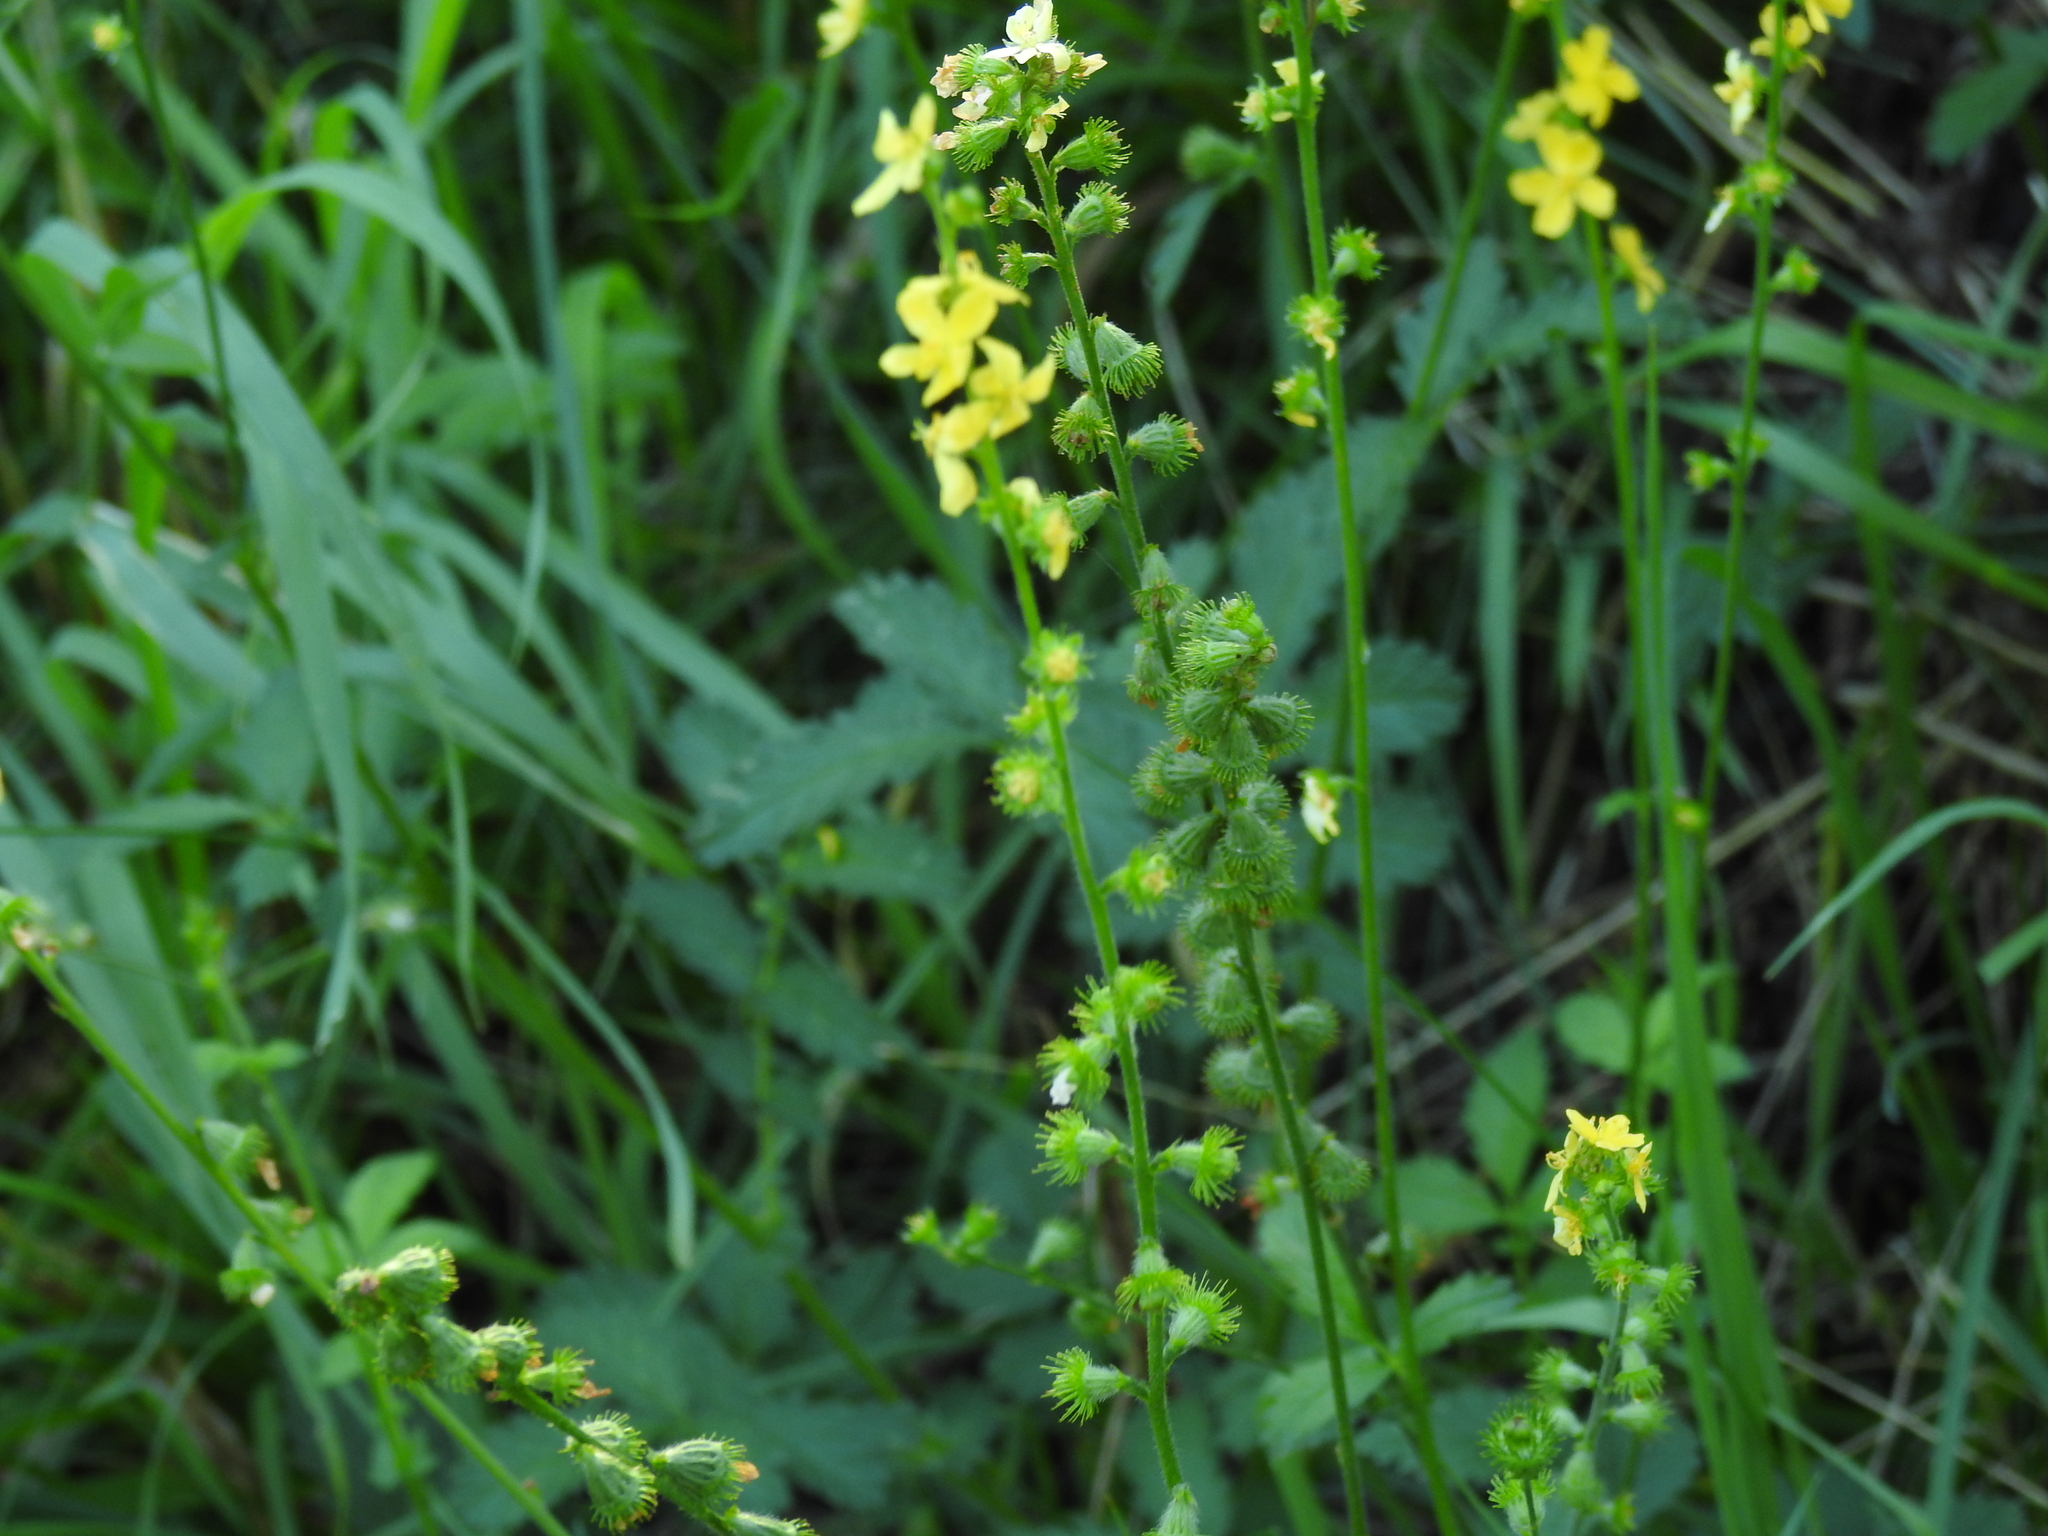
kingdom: Plantae
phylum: Tracheophyta
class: Magnoliopsida
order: Rosales
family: Rosaceae
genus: Agrimonia
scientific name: Agrimonia eupatoria
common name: Agrimony
